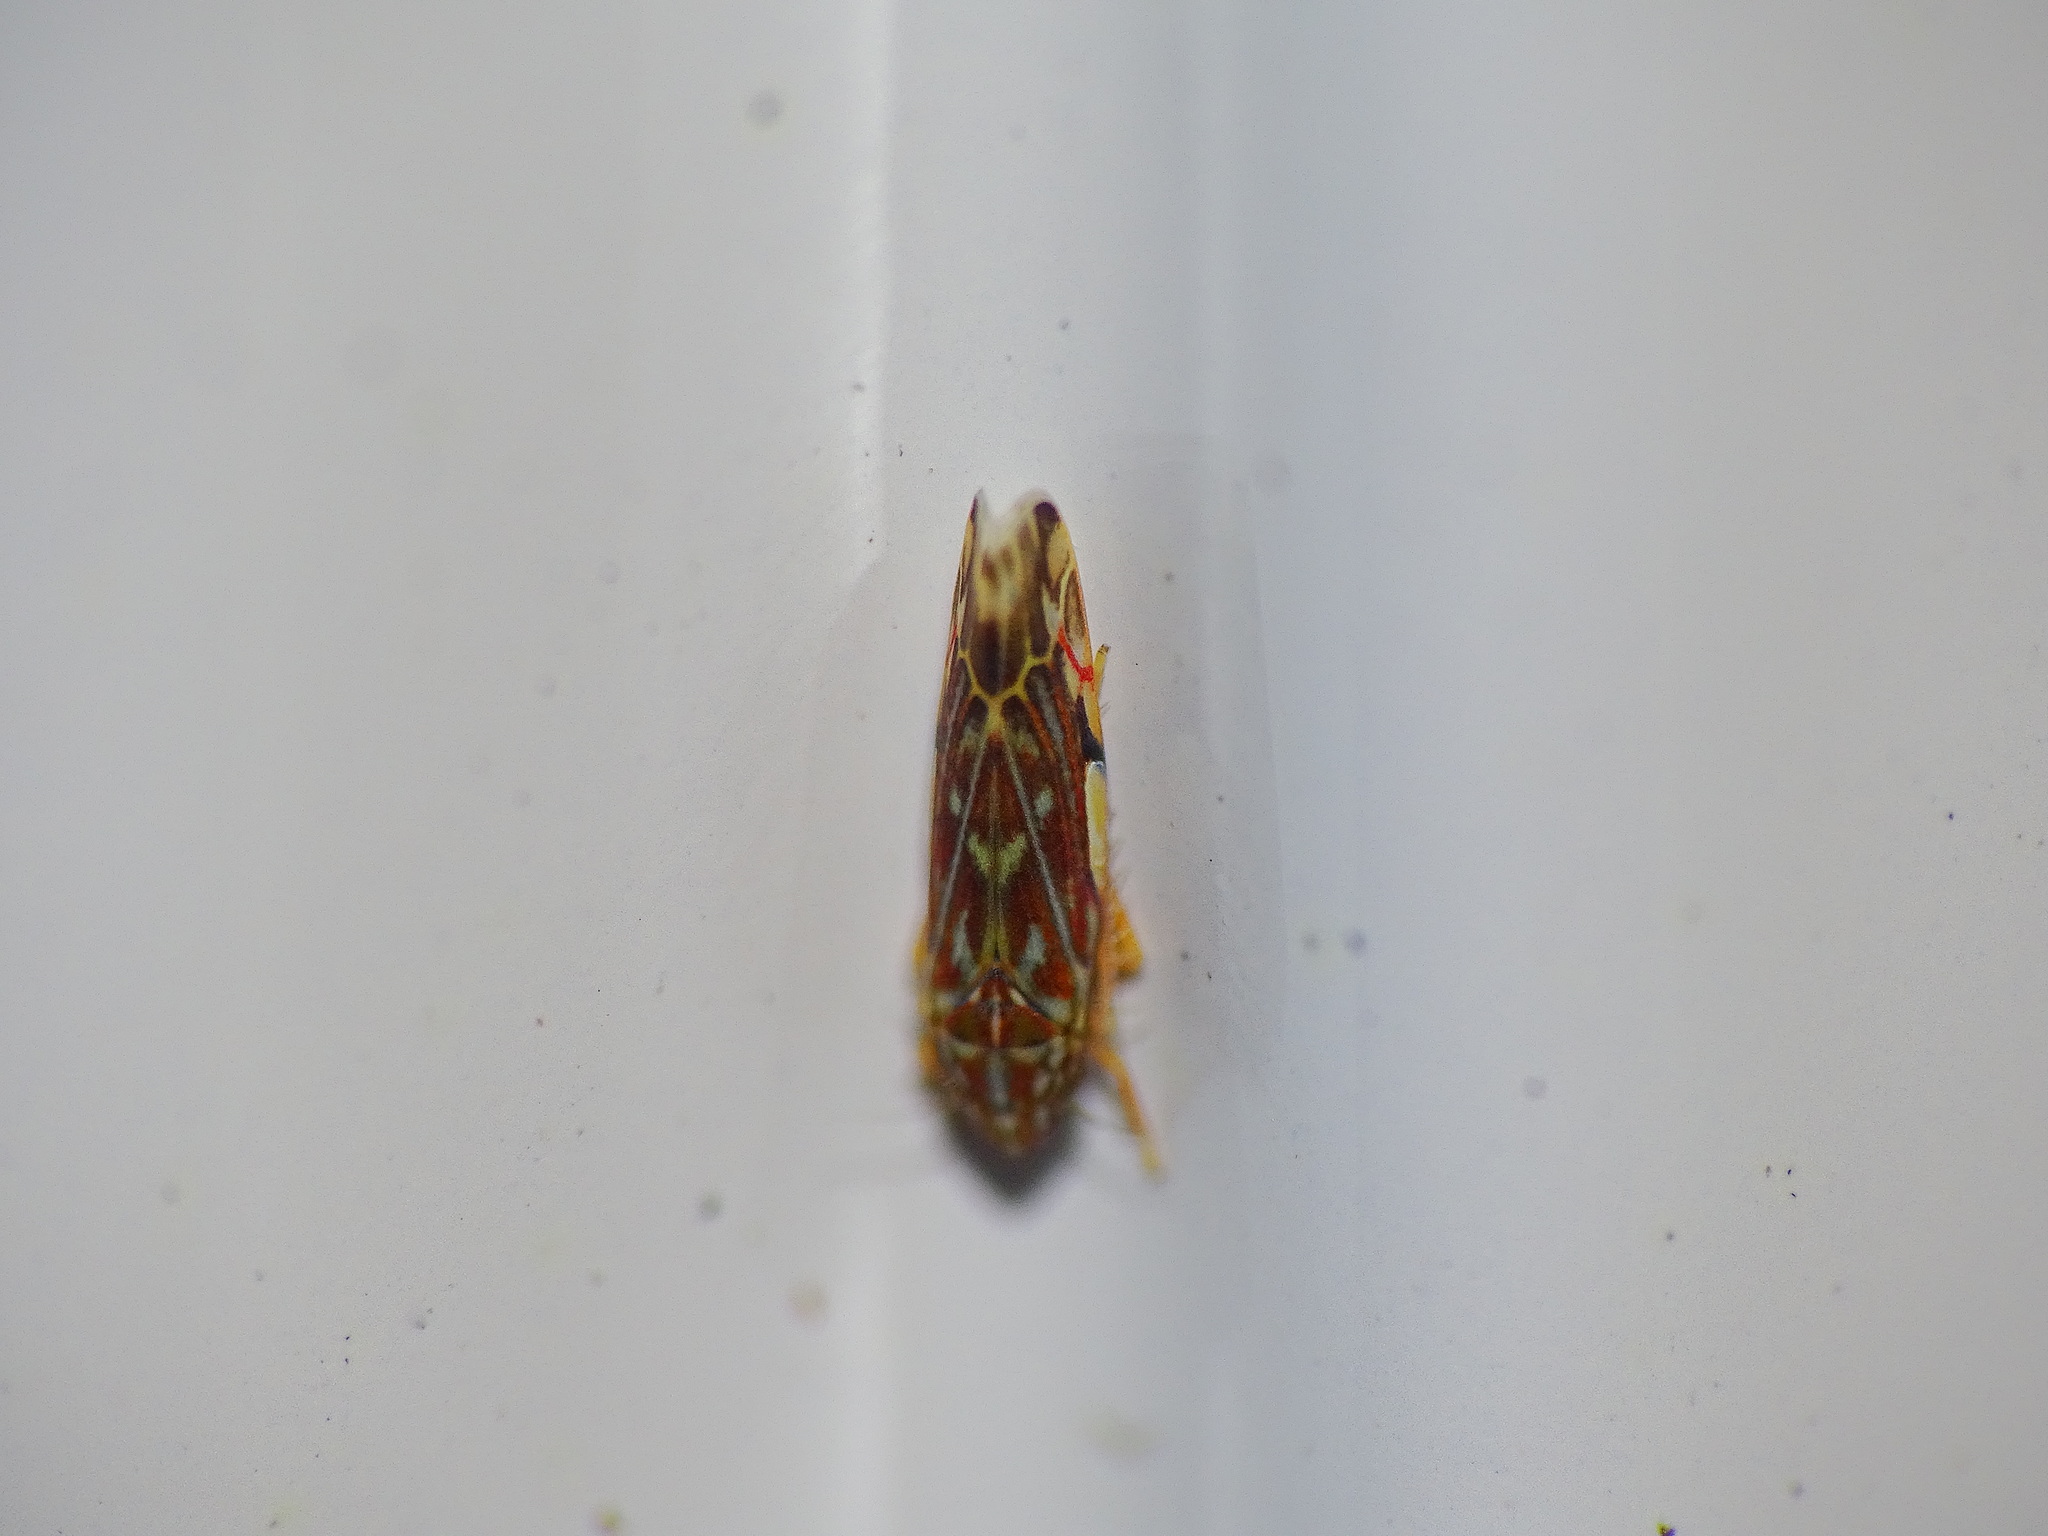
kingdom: Animalia
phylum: Arthropoda
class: Insecta
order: Hemiptera
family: Cicadellidae
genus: Erasmoneura
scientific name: Erasmoneura vulnerata
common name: The wounded leafhopper
